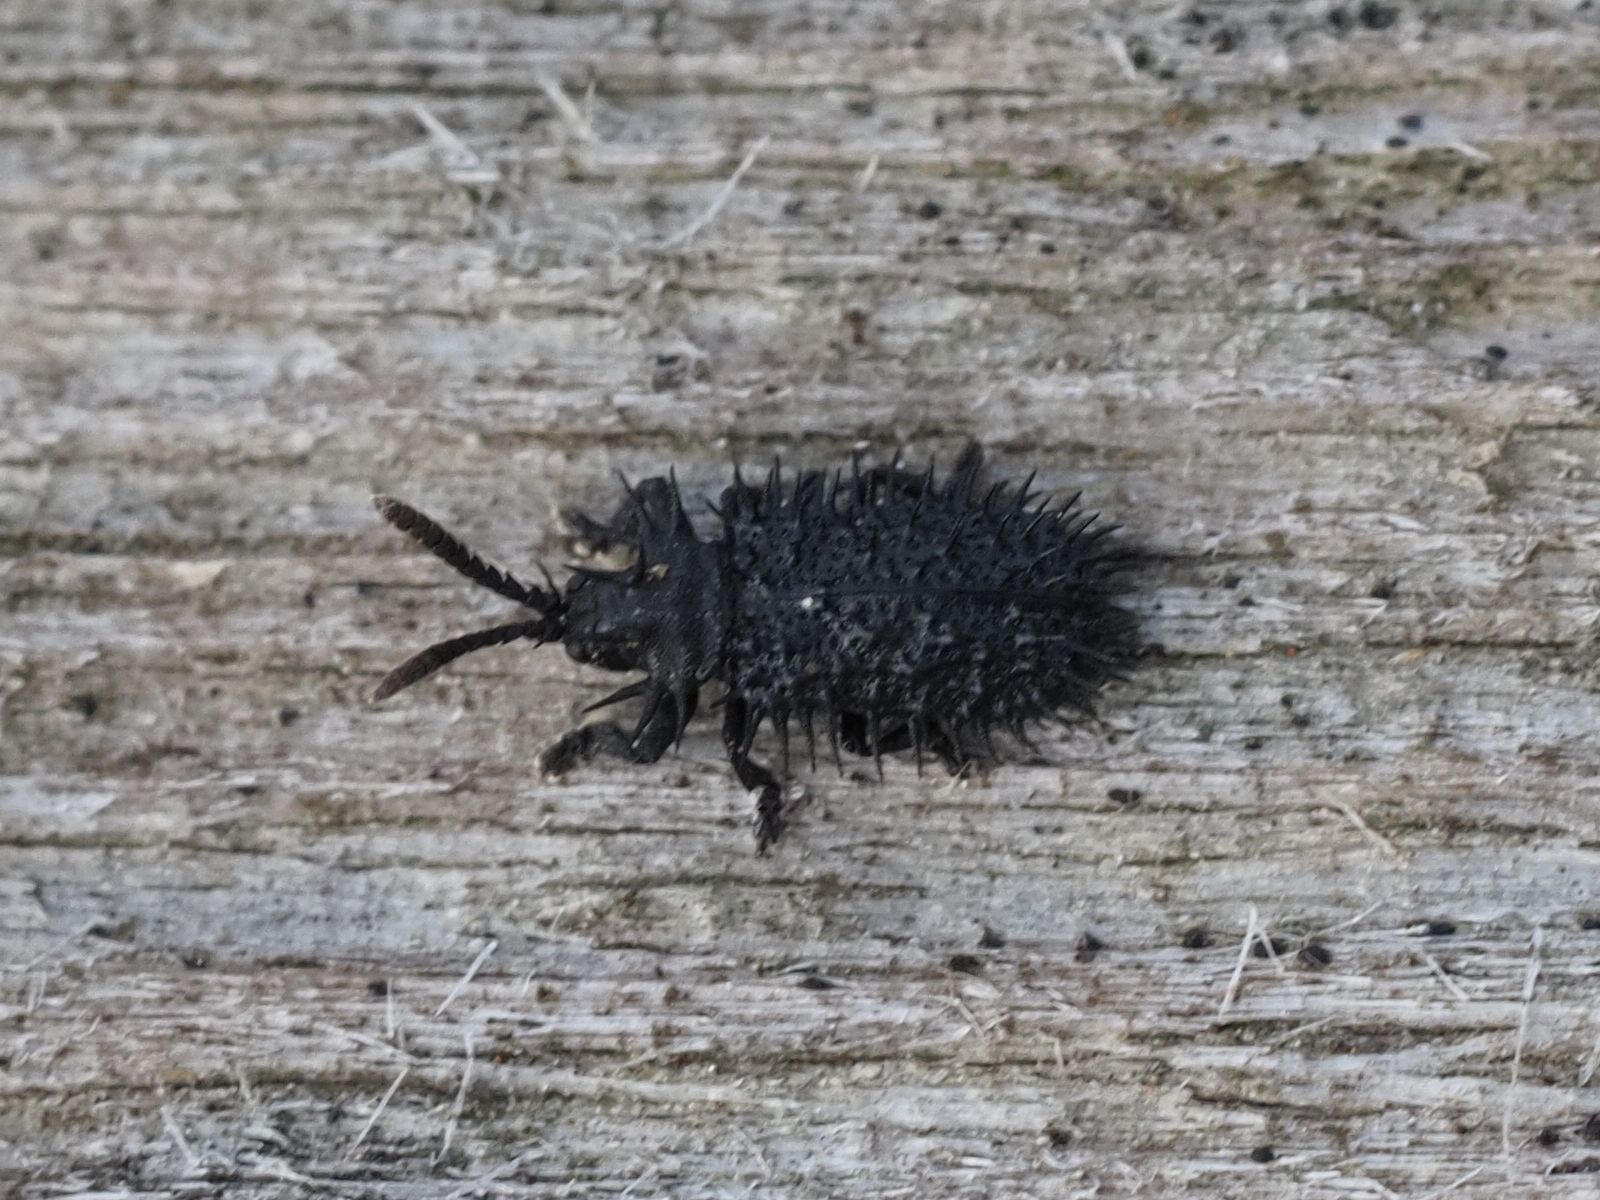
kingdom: Animalia
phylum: Arthropoda
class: Insecta
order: Coleoptera
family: Chrysomelidae
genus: Hispa
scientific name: Hispa atra
